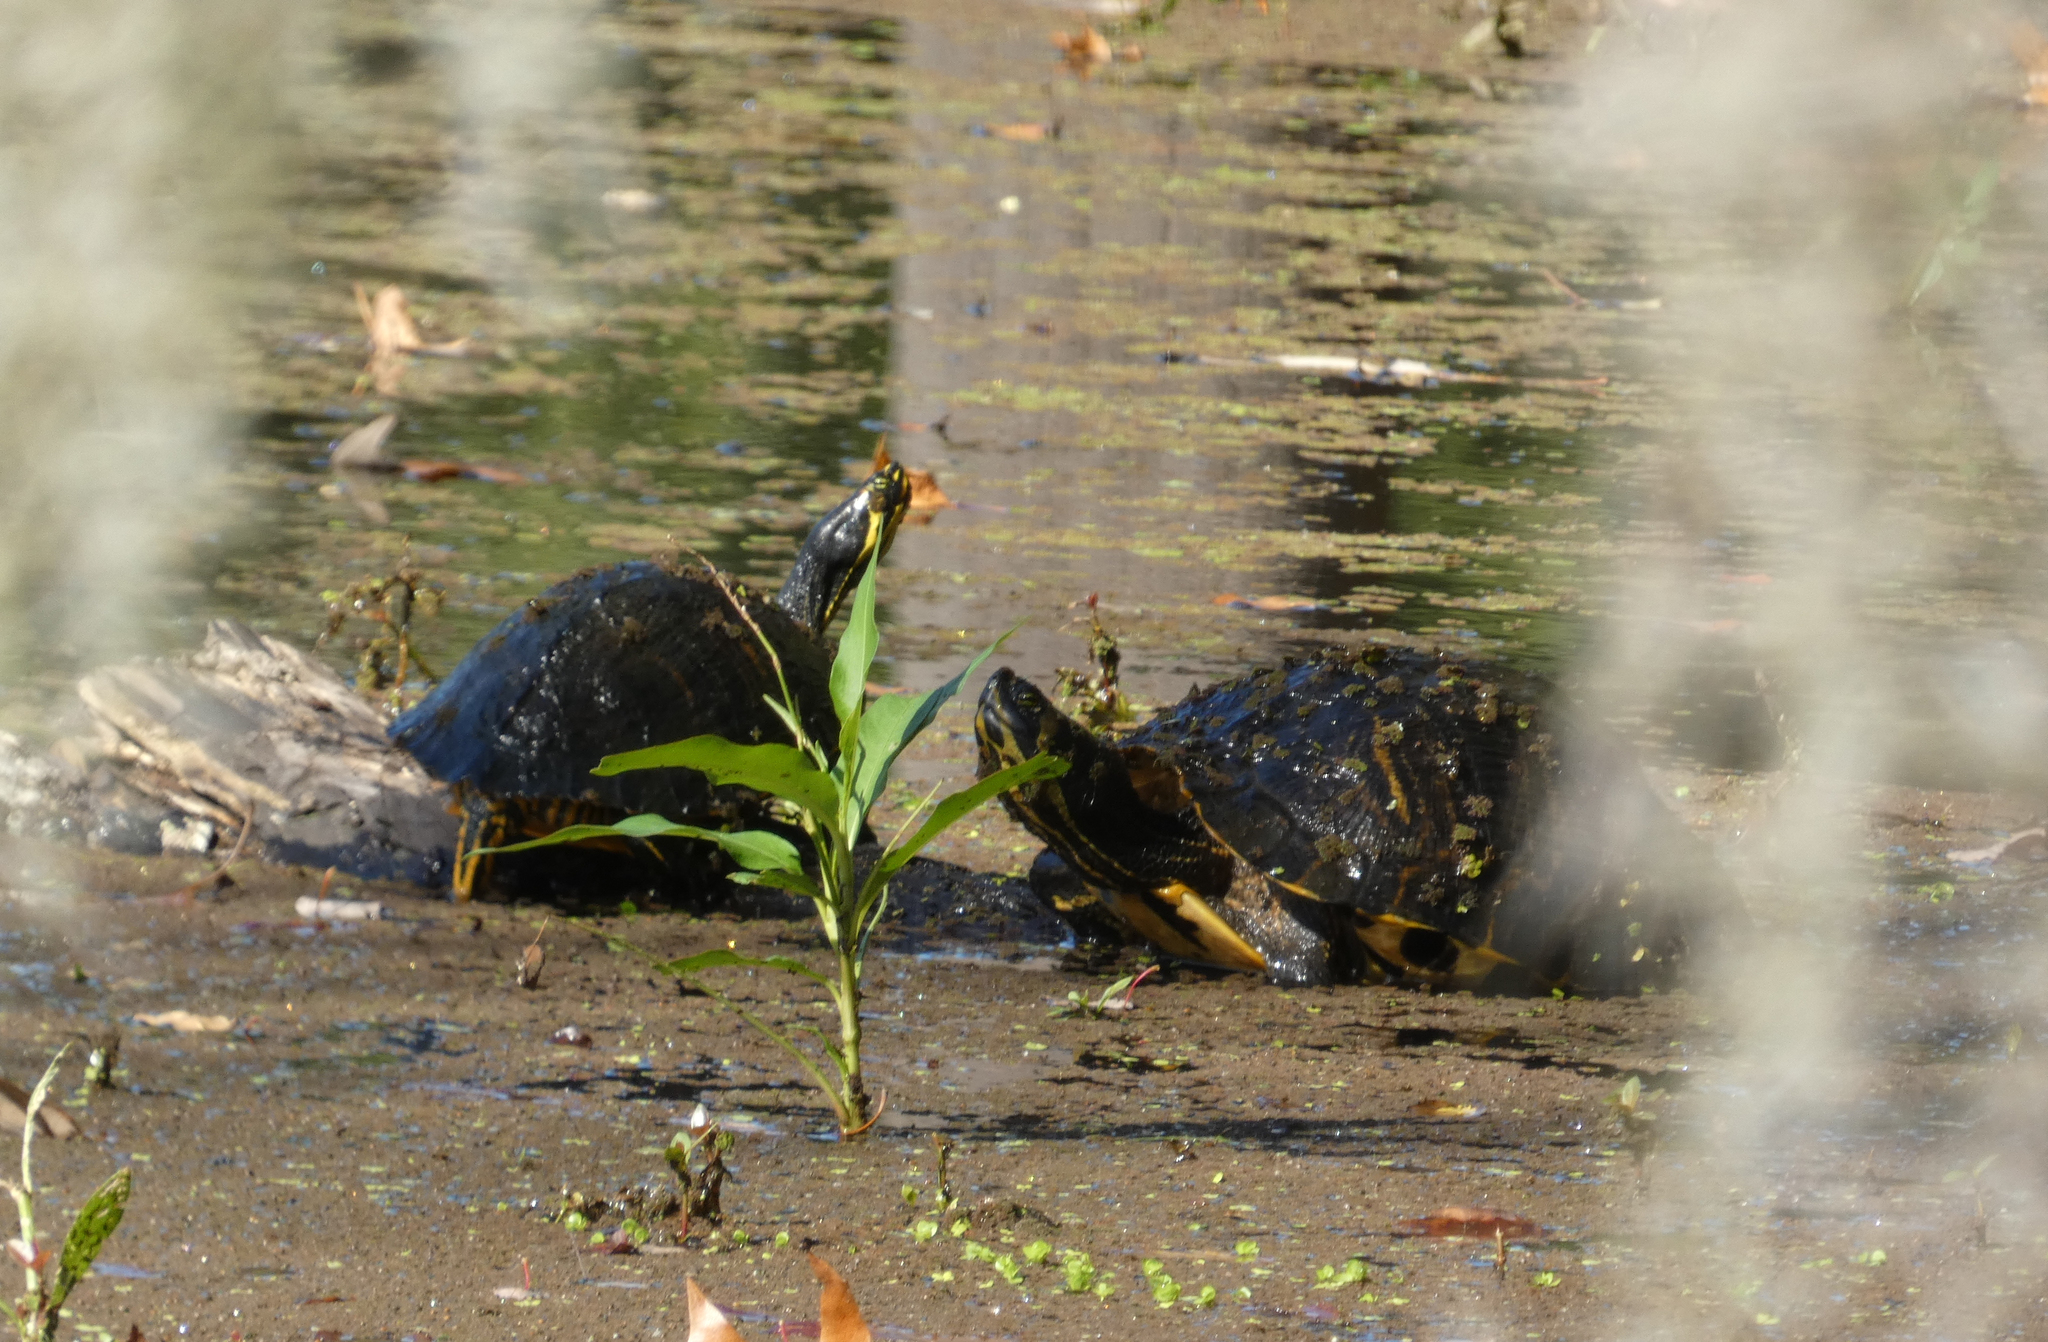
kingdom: Animalia
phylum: Chordata
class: Testudines
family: Emydidae
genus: Trachemys
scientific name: Trachemys scripta
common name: Slider
